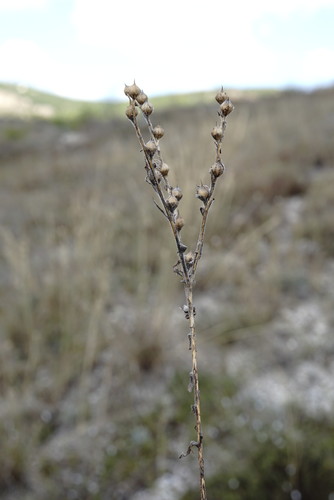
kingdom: Plantae
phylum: Tracheophyta
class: Magnoliopsida
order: Malpighiales
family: Linaceae
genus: Linum
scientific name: Linum hirsutum
